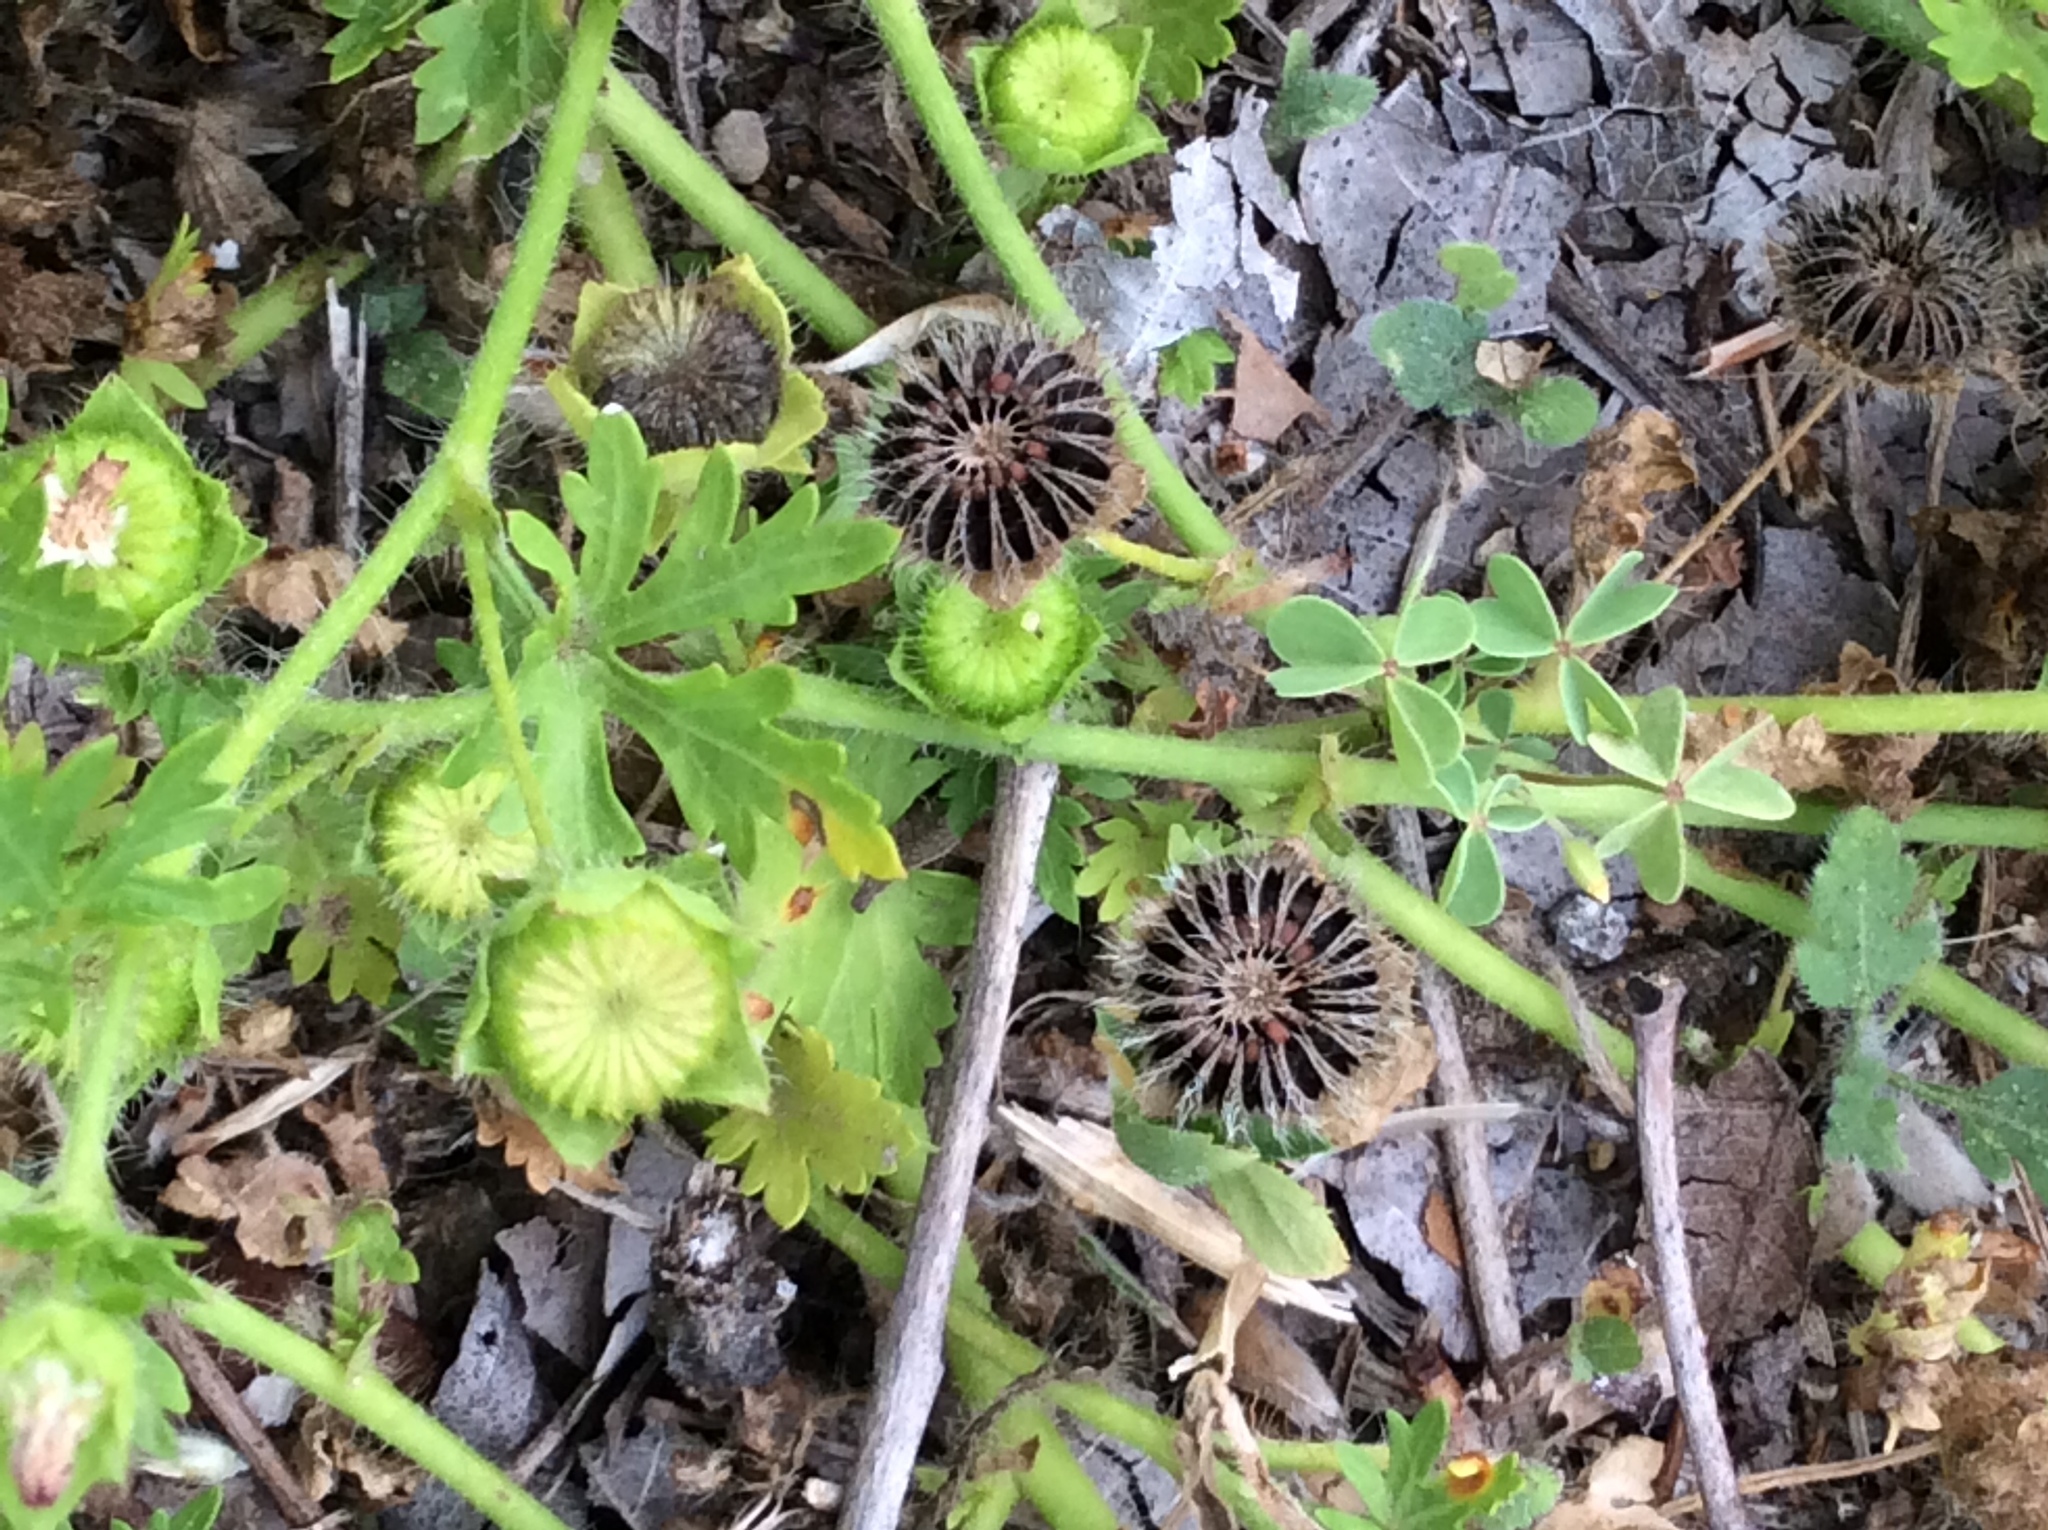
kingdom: Plantae
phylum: Tracheophyta
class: Magnoliopsida
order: Malvales
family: Malvaceae
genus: Modiola
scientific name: Modiola caroliniana
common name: Carolina bristlemallow
